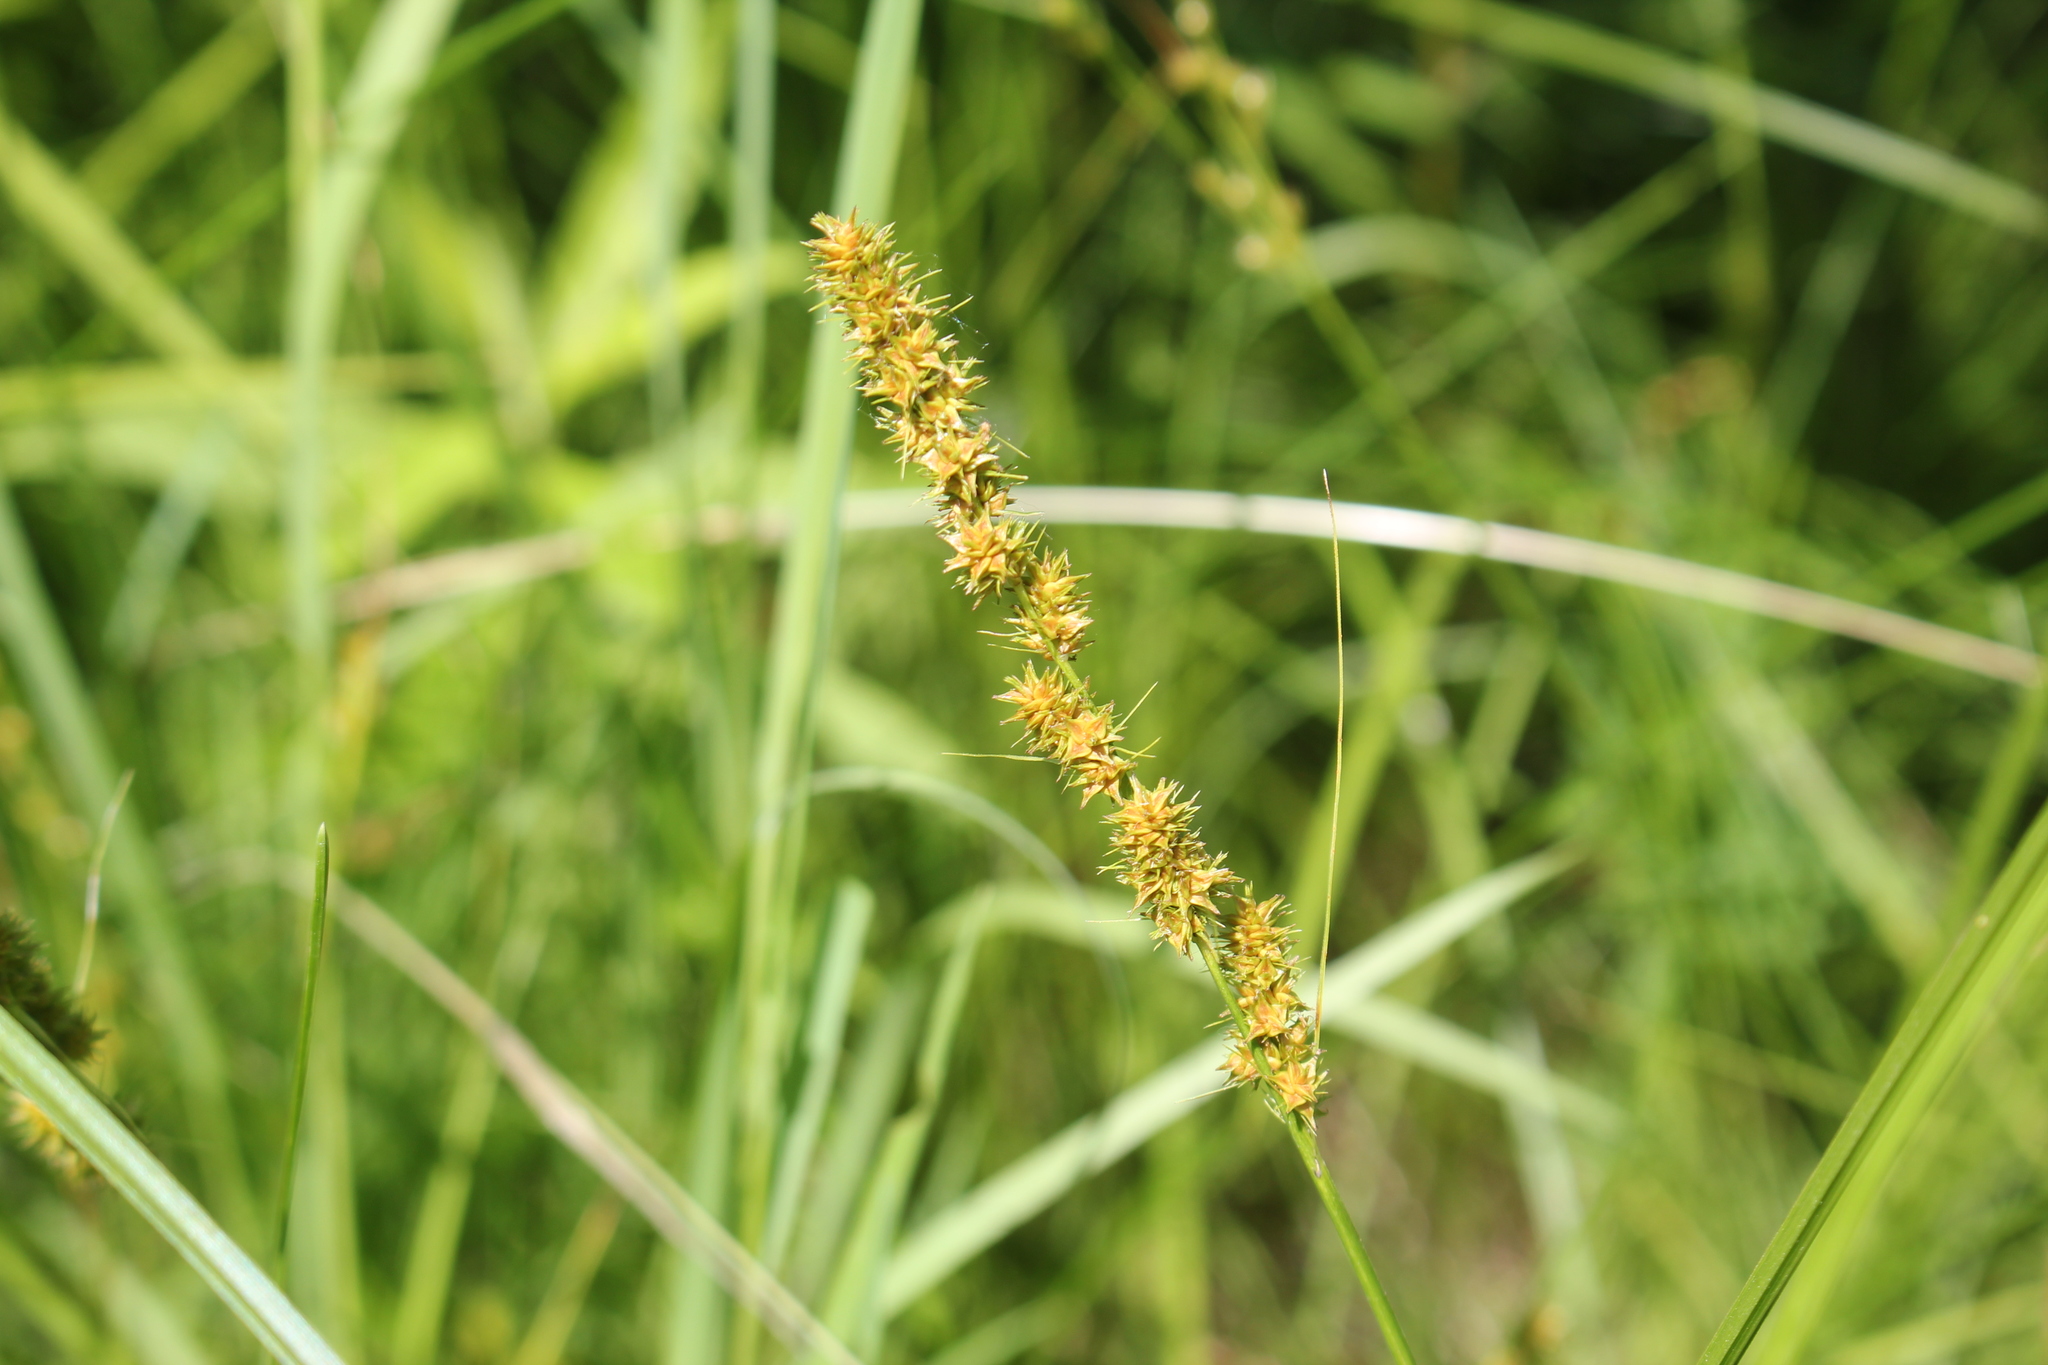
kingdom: Plantae
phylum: Tracheophyta
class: Liliopsida
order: Poales
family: Cyperaceae
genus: Carex
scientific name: Carex vulpinoidea
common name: American fox-sedge
